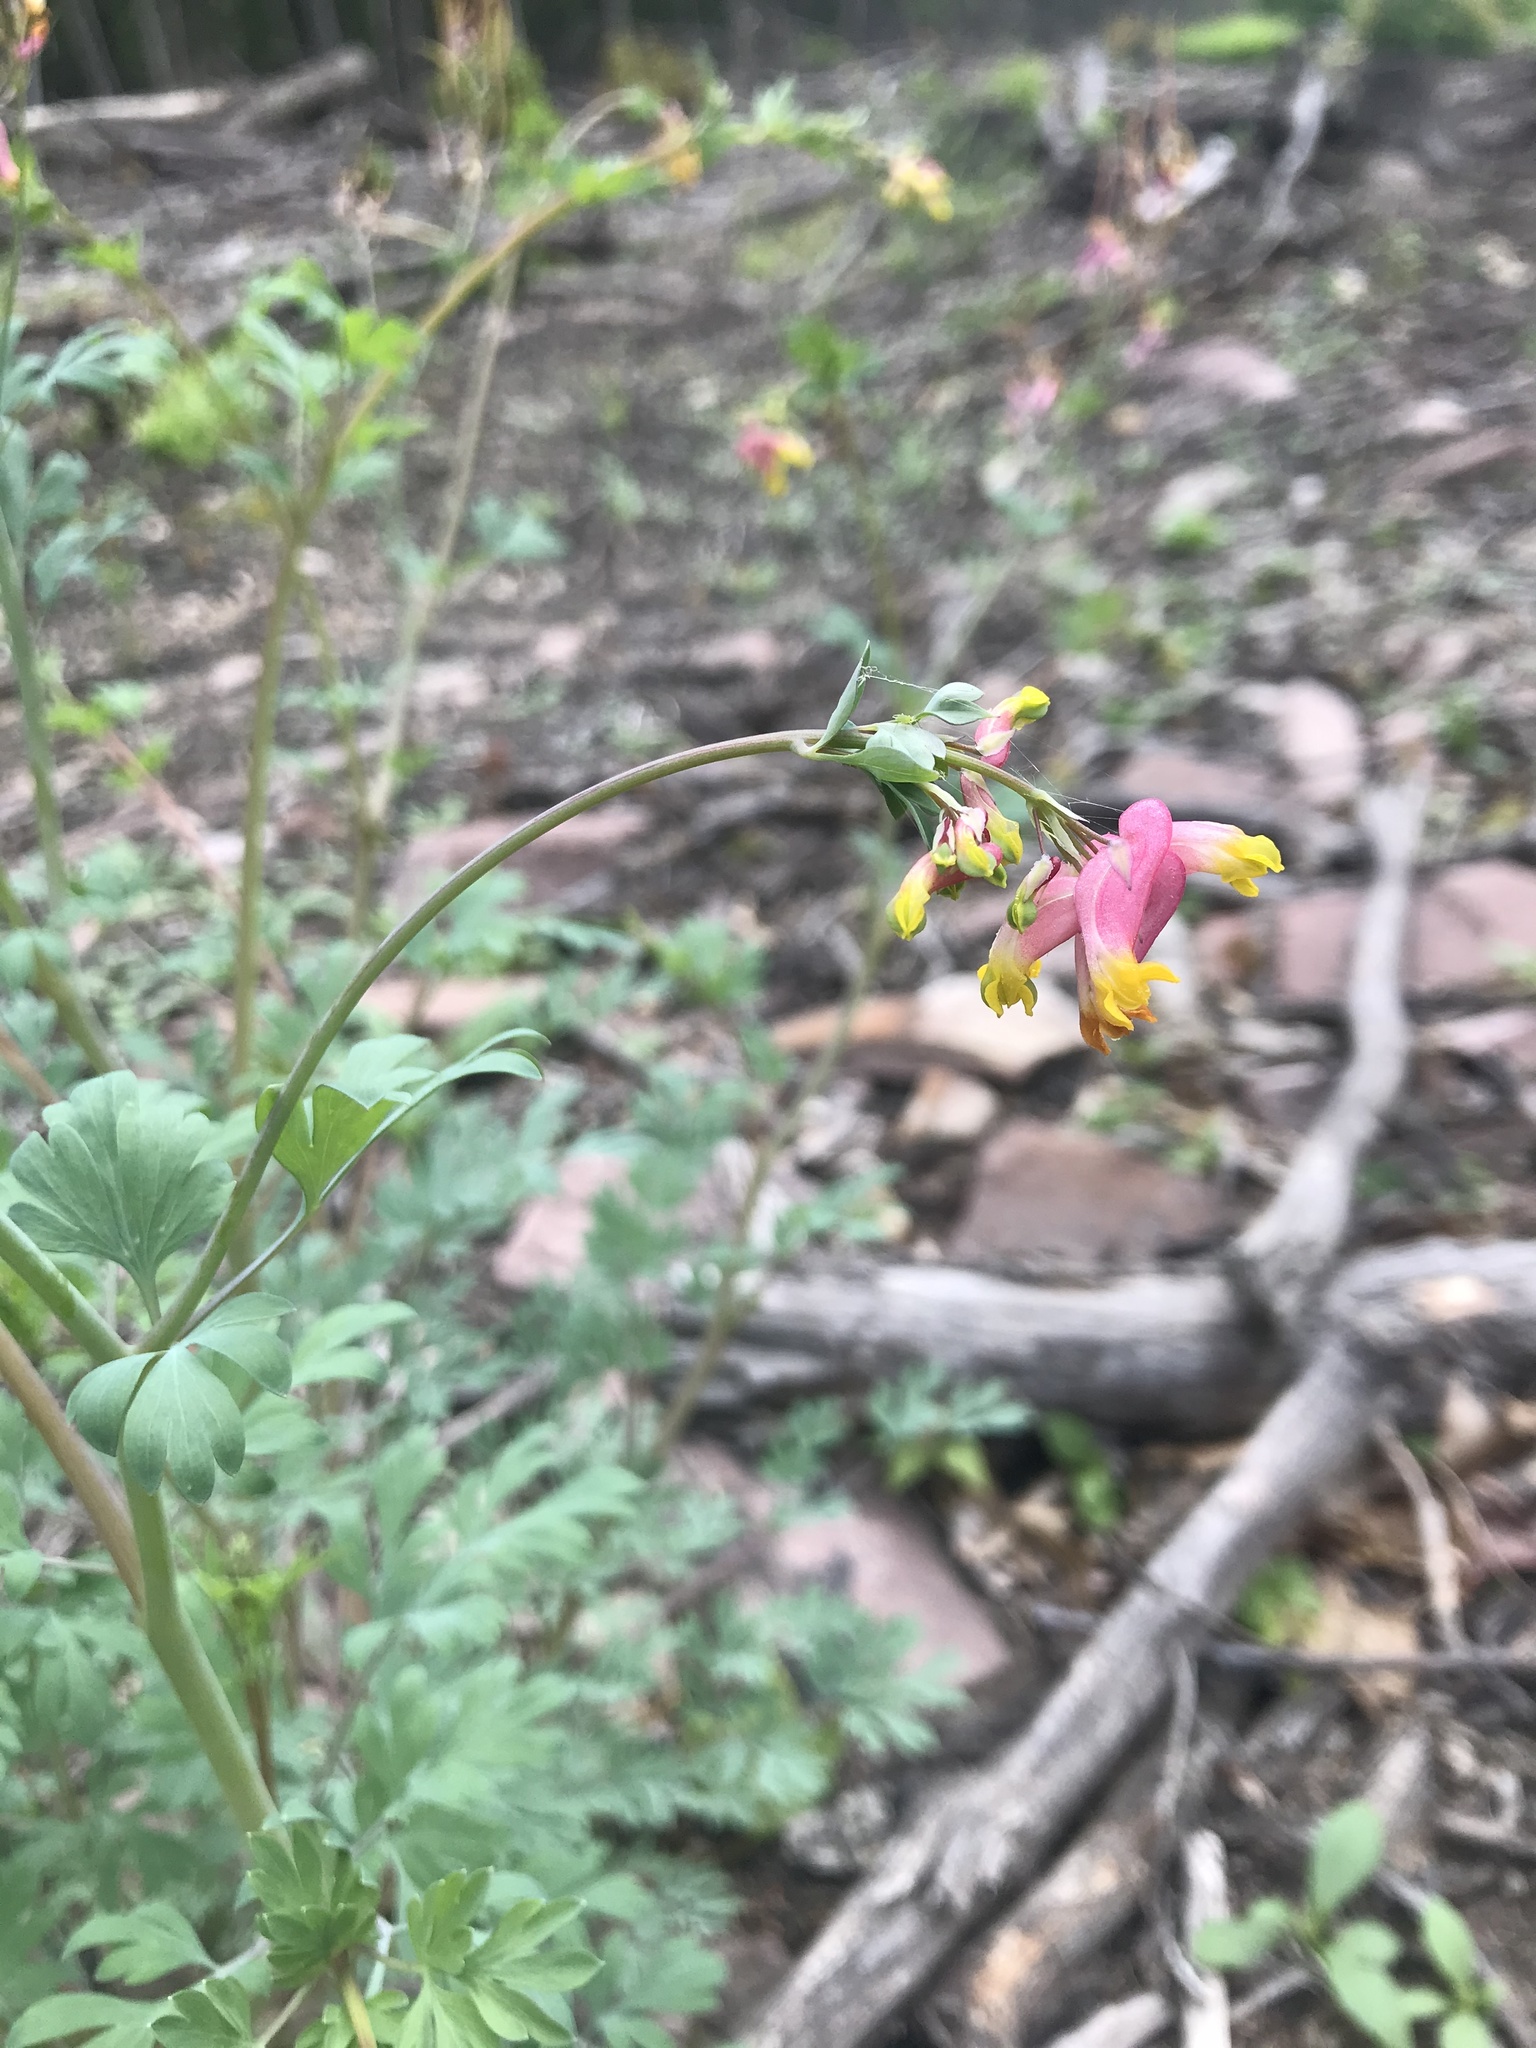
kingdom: Plantae
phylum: Tracheophyta
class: Magnoliopsida
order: Ranunculales
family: Papaveraceae
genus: Capnoides
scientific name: Capnoides sempervirens
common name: Rock harlequin
